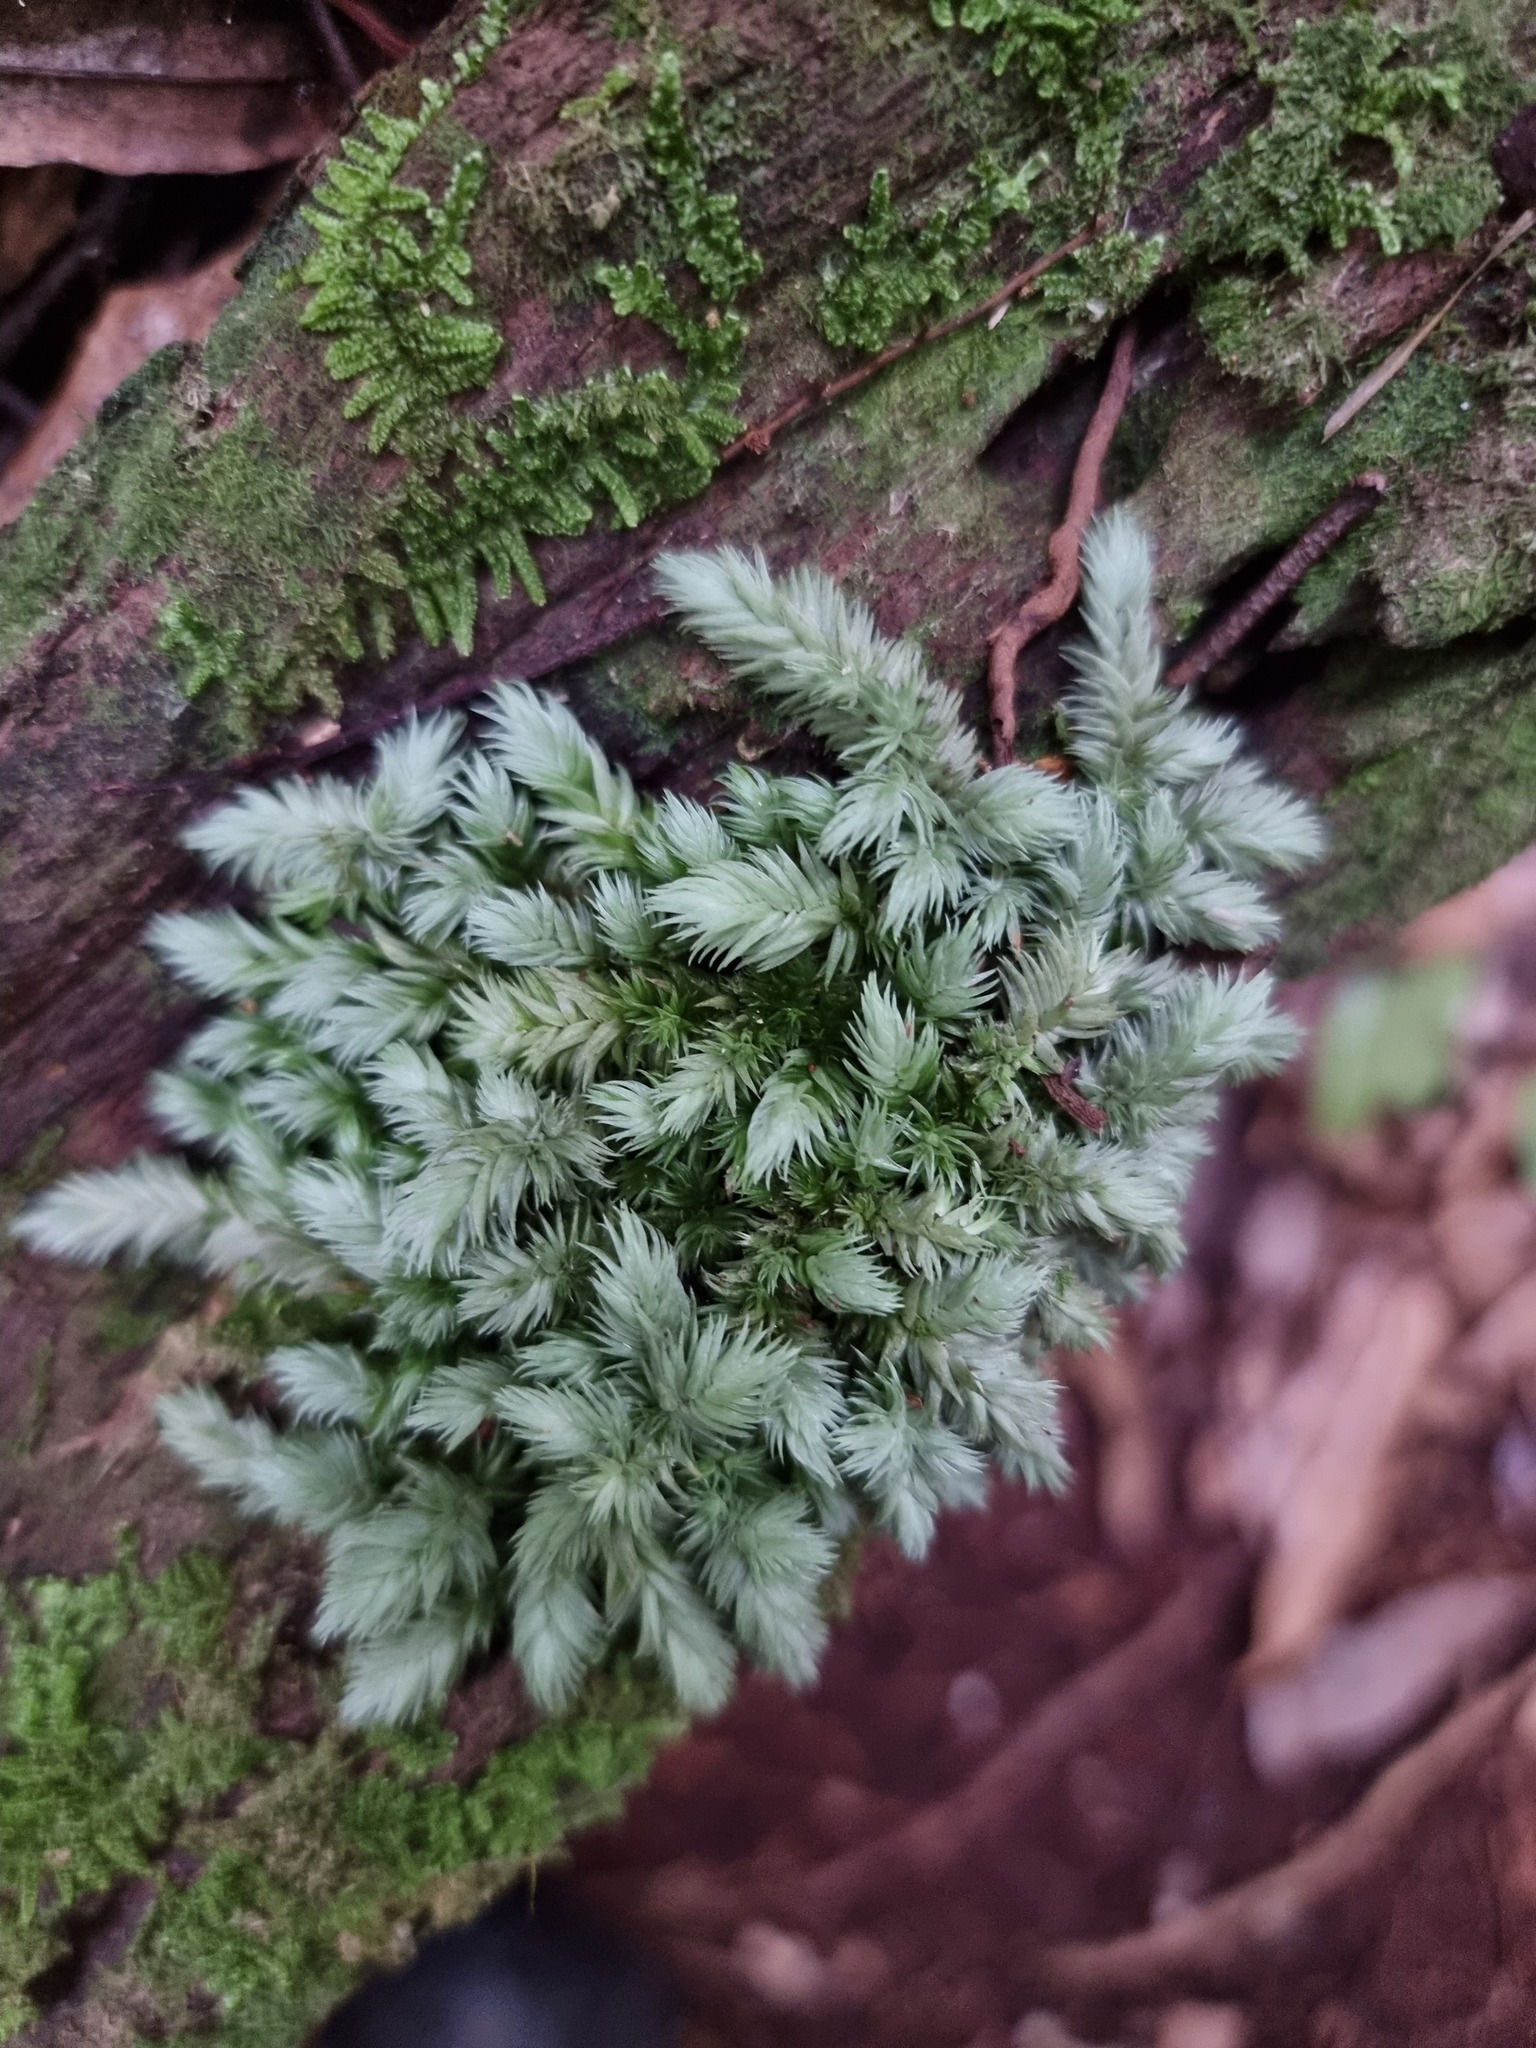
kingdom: Plantae
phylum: Bryophyta
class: Bryopsida
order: Dicranales
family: Leucobryaceae
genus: Leucobryum
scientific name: Leucobryum javense
